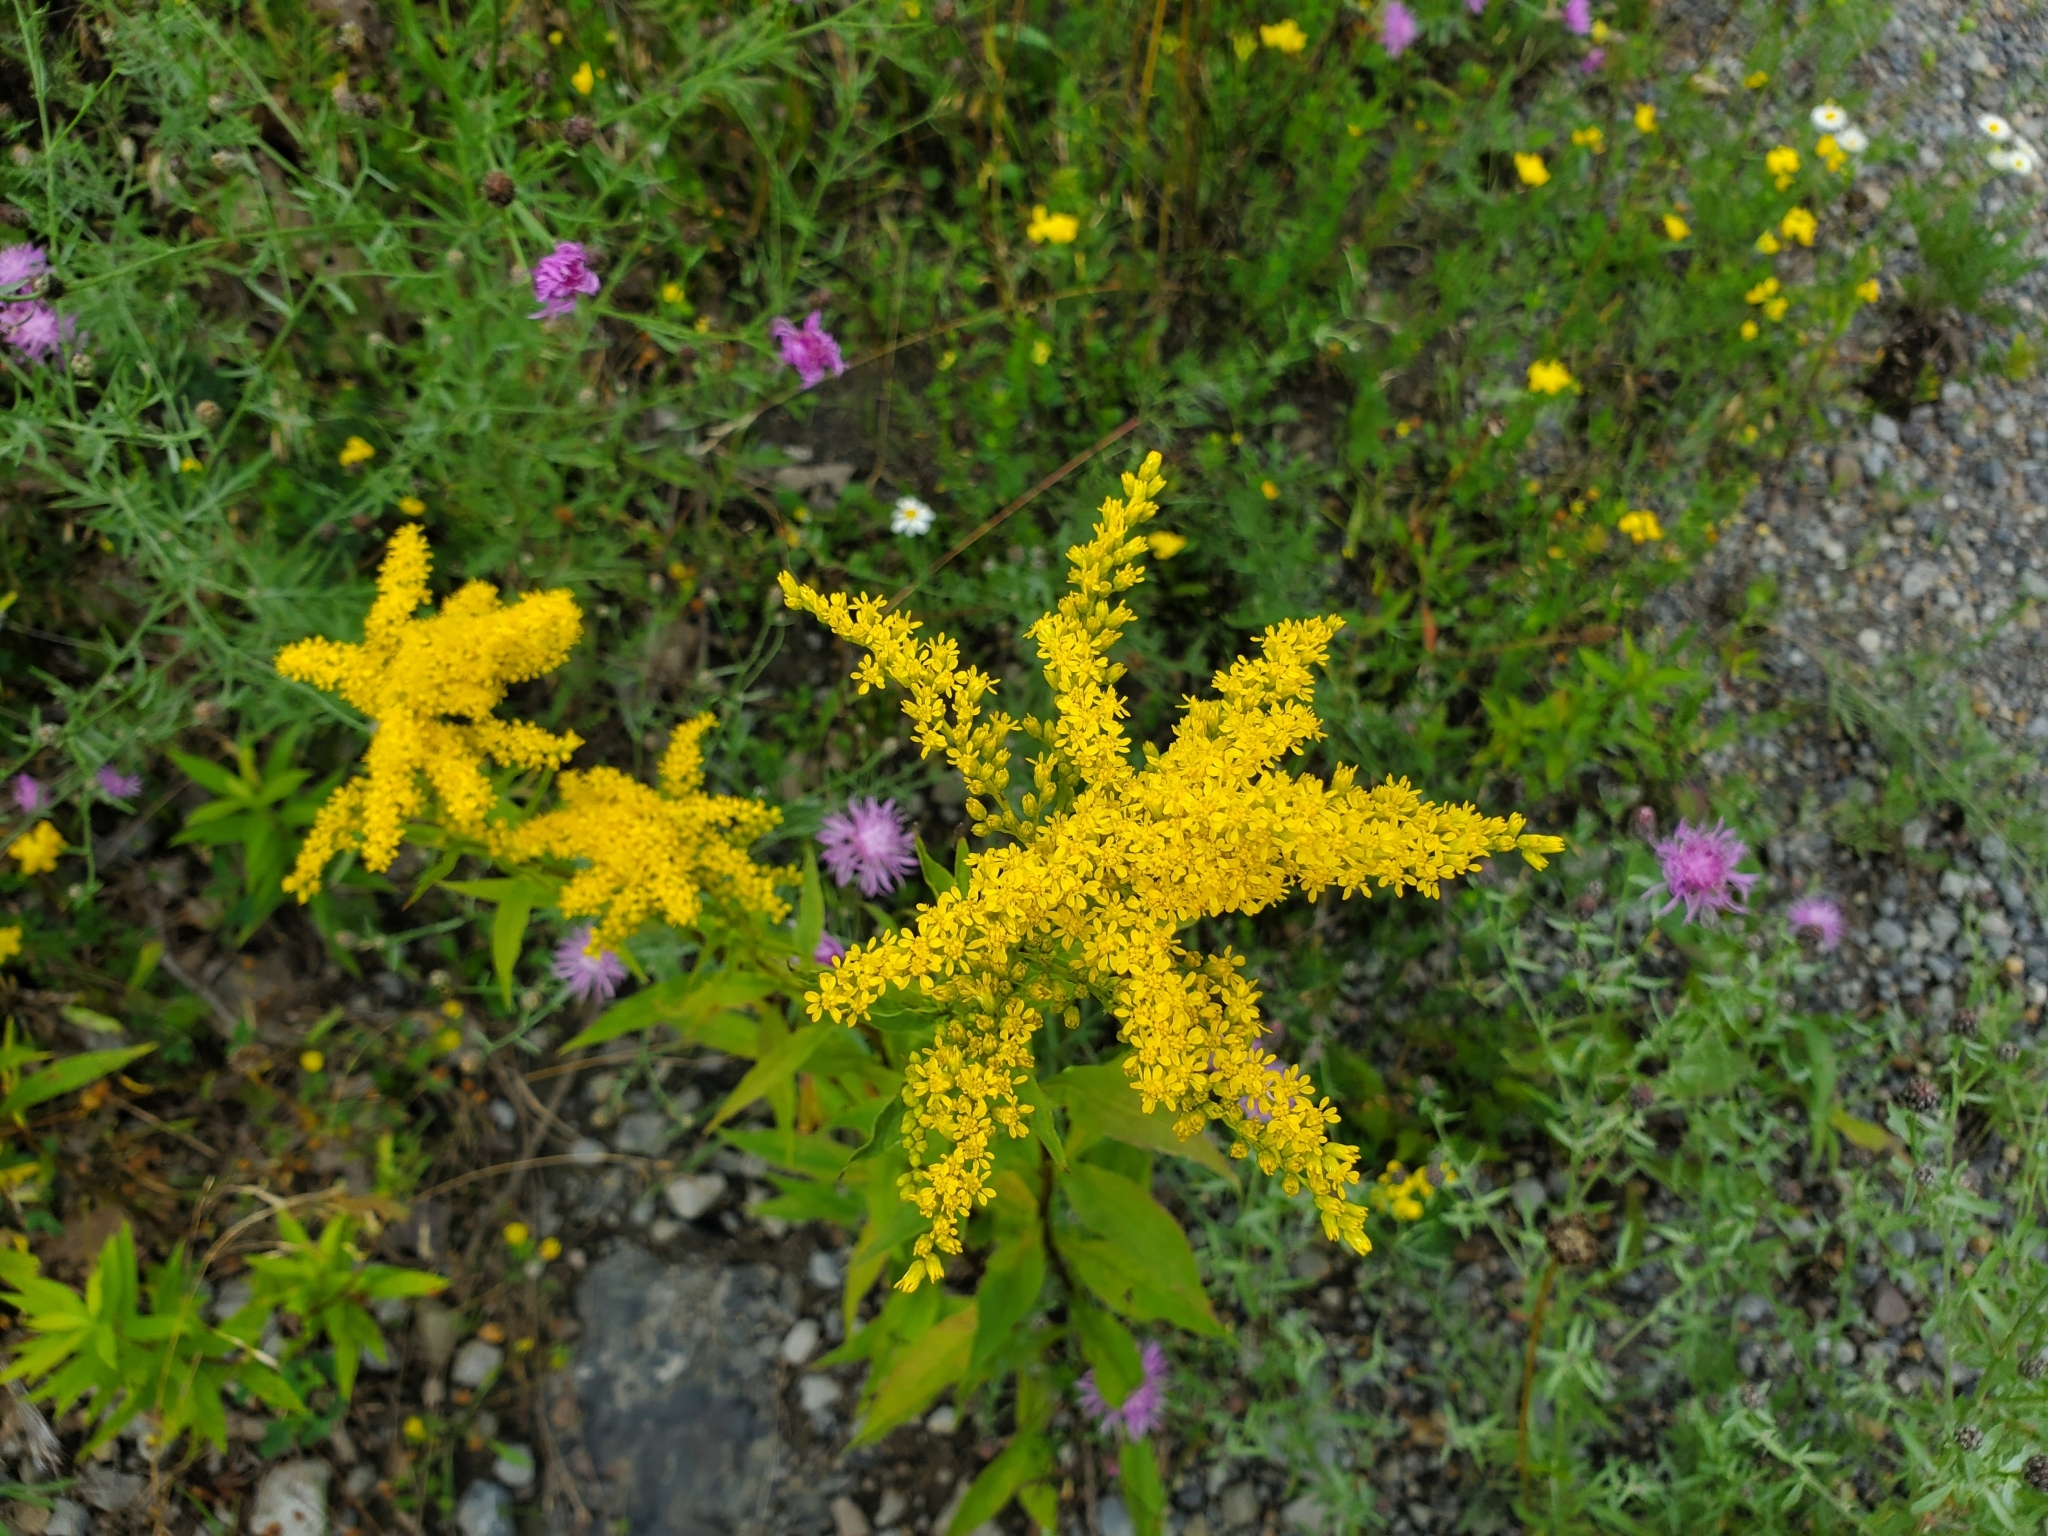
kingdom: Plantae
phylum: Tracheophyta
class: Magnoliopsida
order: Asterales
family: Asteraceae
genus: Solidago
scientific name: Solidago juncea
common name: Early goldenrod
